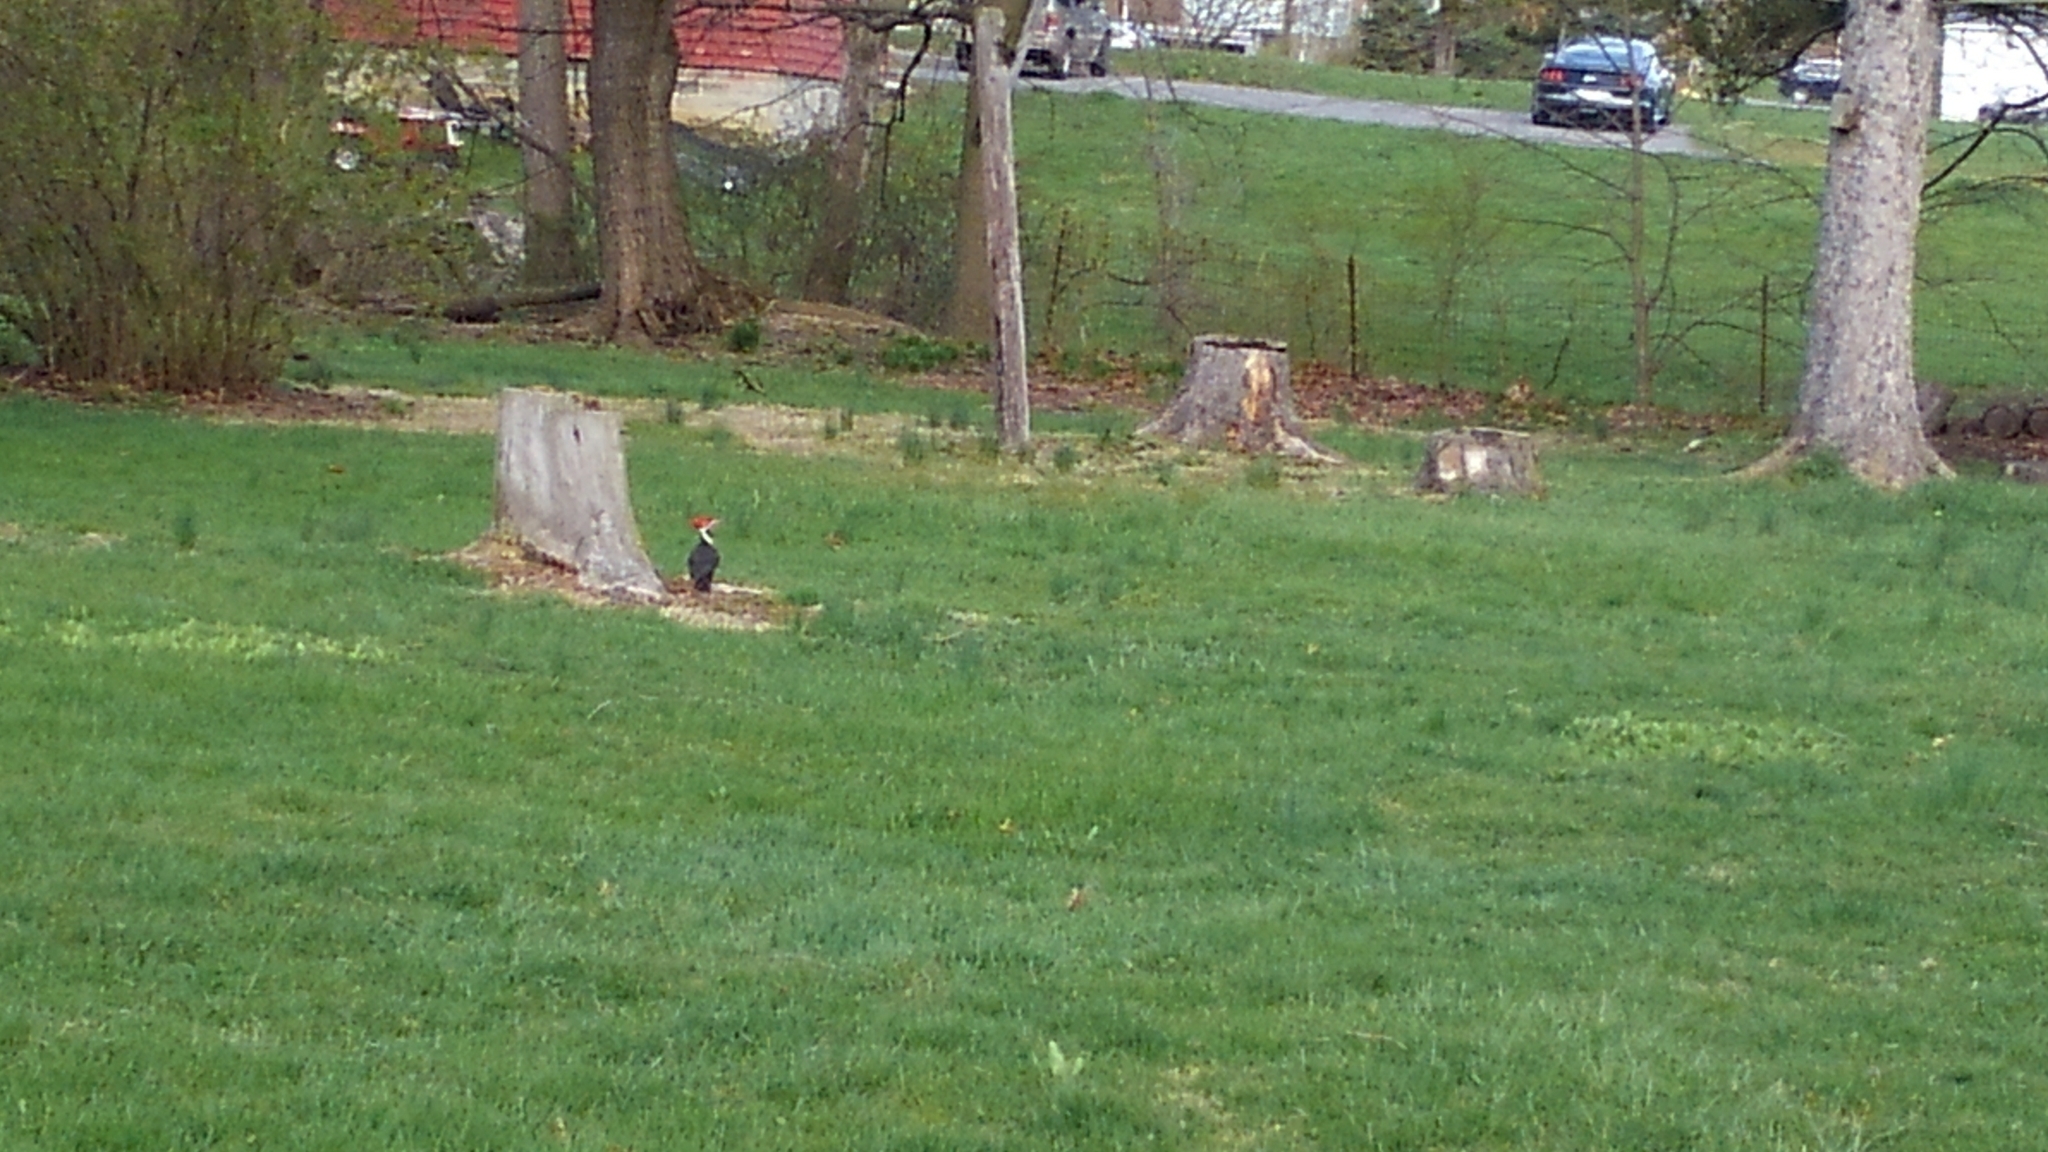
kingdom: Animalia
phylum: Chordata
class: Aves
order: Piciformes
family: Picidae
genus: Dryocopus
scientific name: Dryocopus pileatus
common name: Pileated woodpecker
